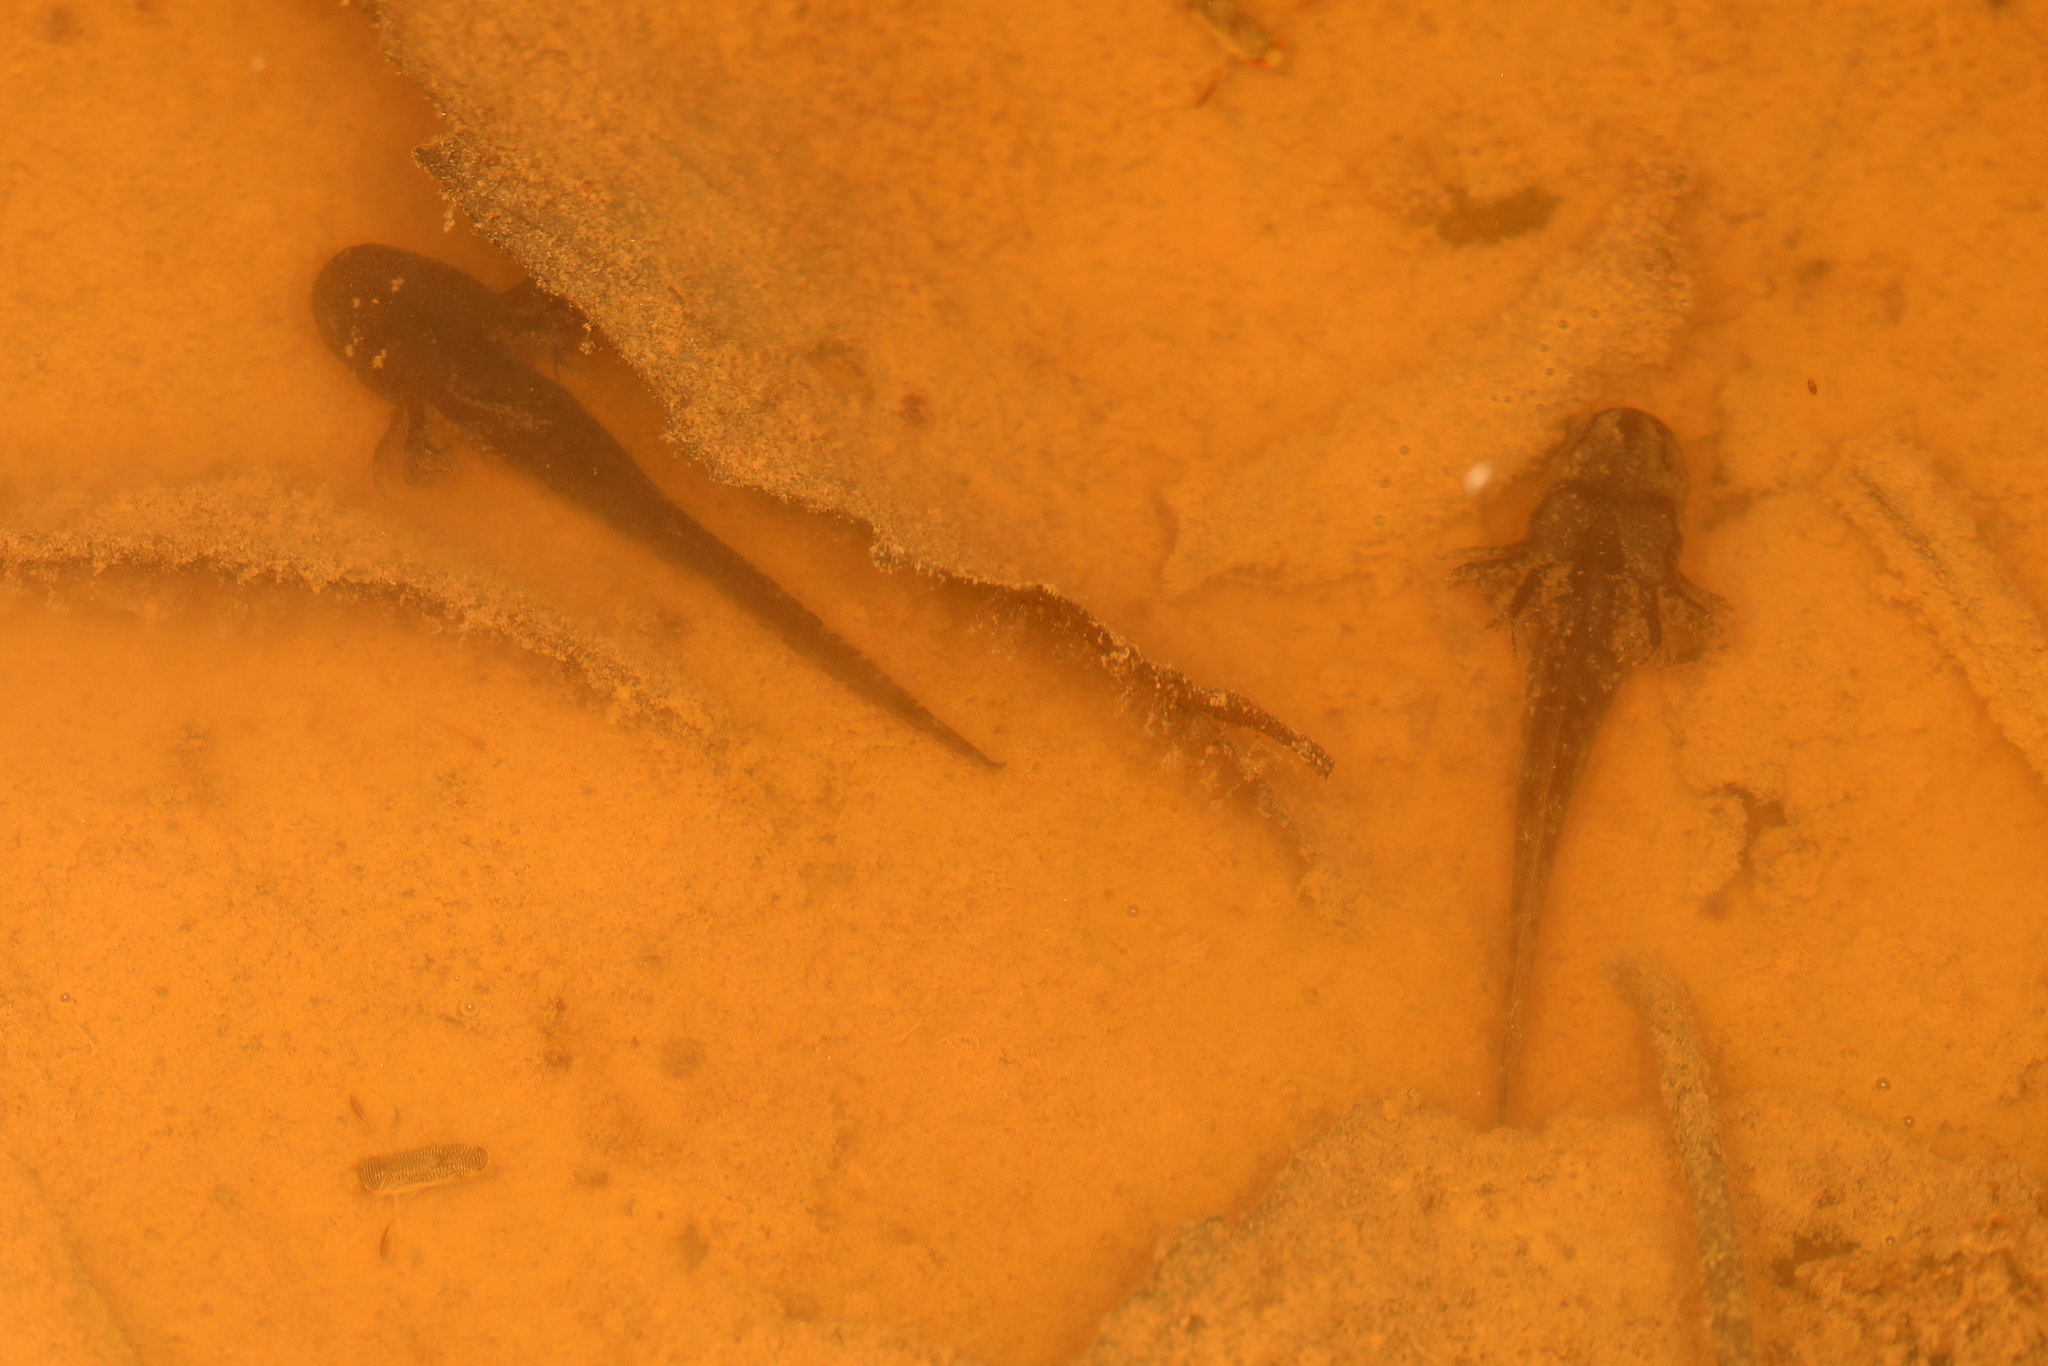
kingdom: Animalia
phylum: Chordata
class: Amphibia
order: Caudata
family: Ambystomatidae
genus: Ambystoma
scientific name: Ambystoma opacum
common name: Marbled salamander
